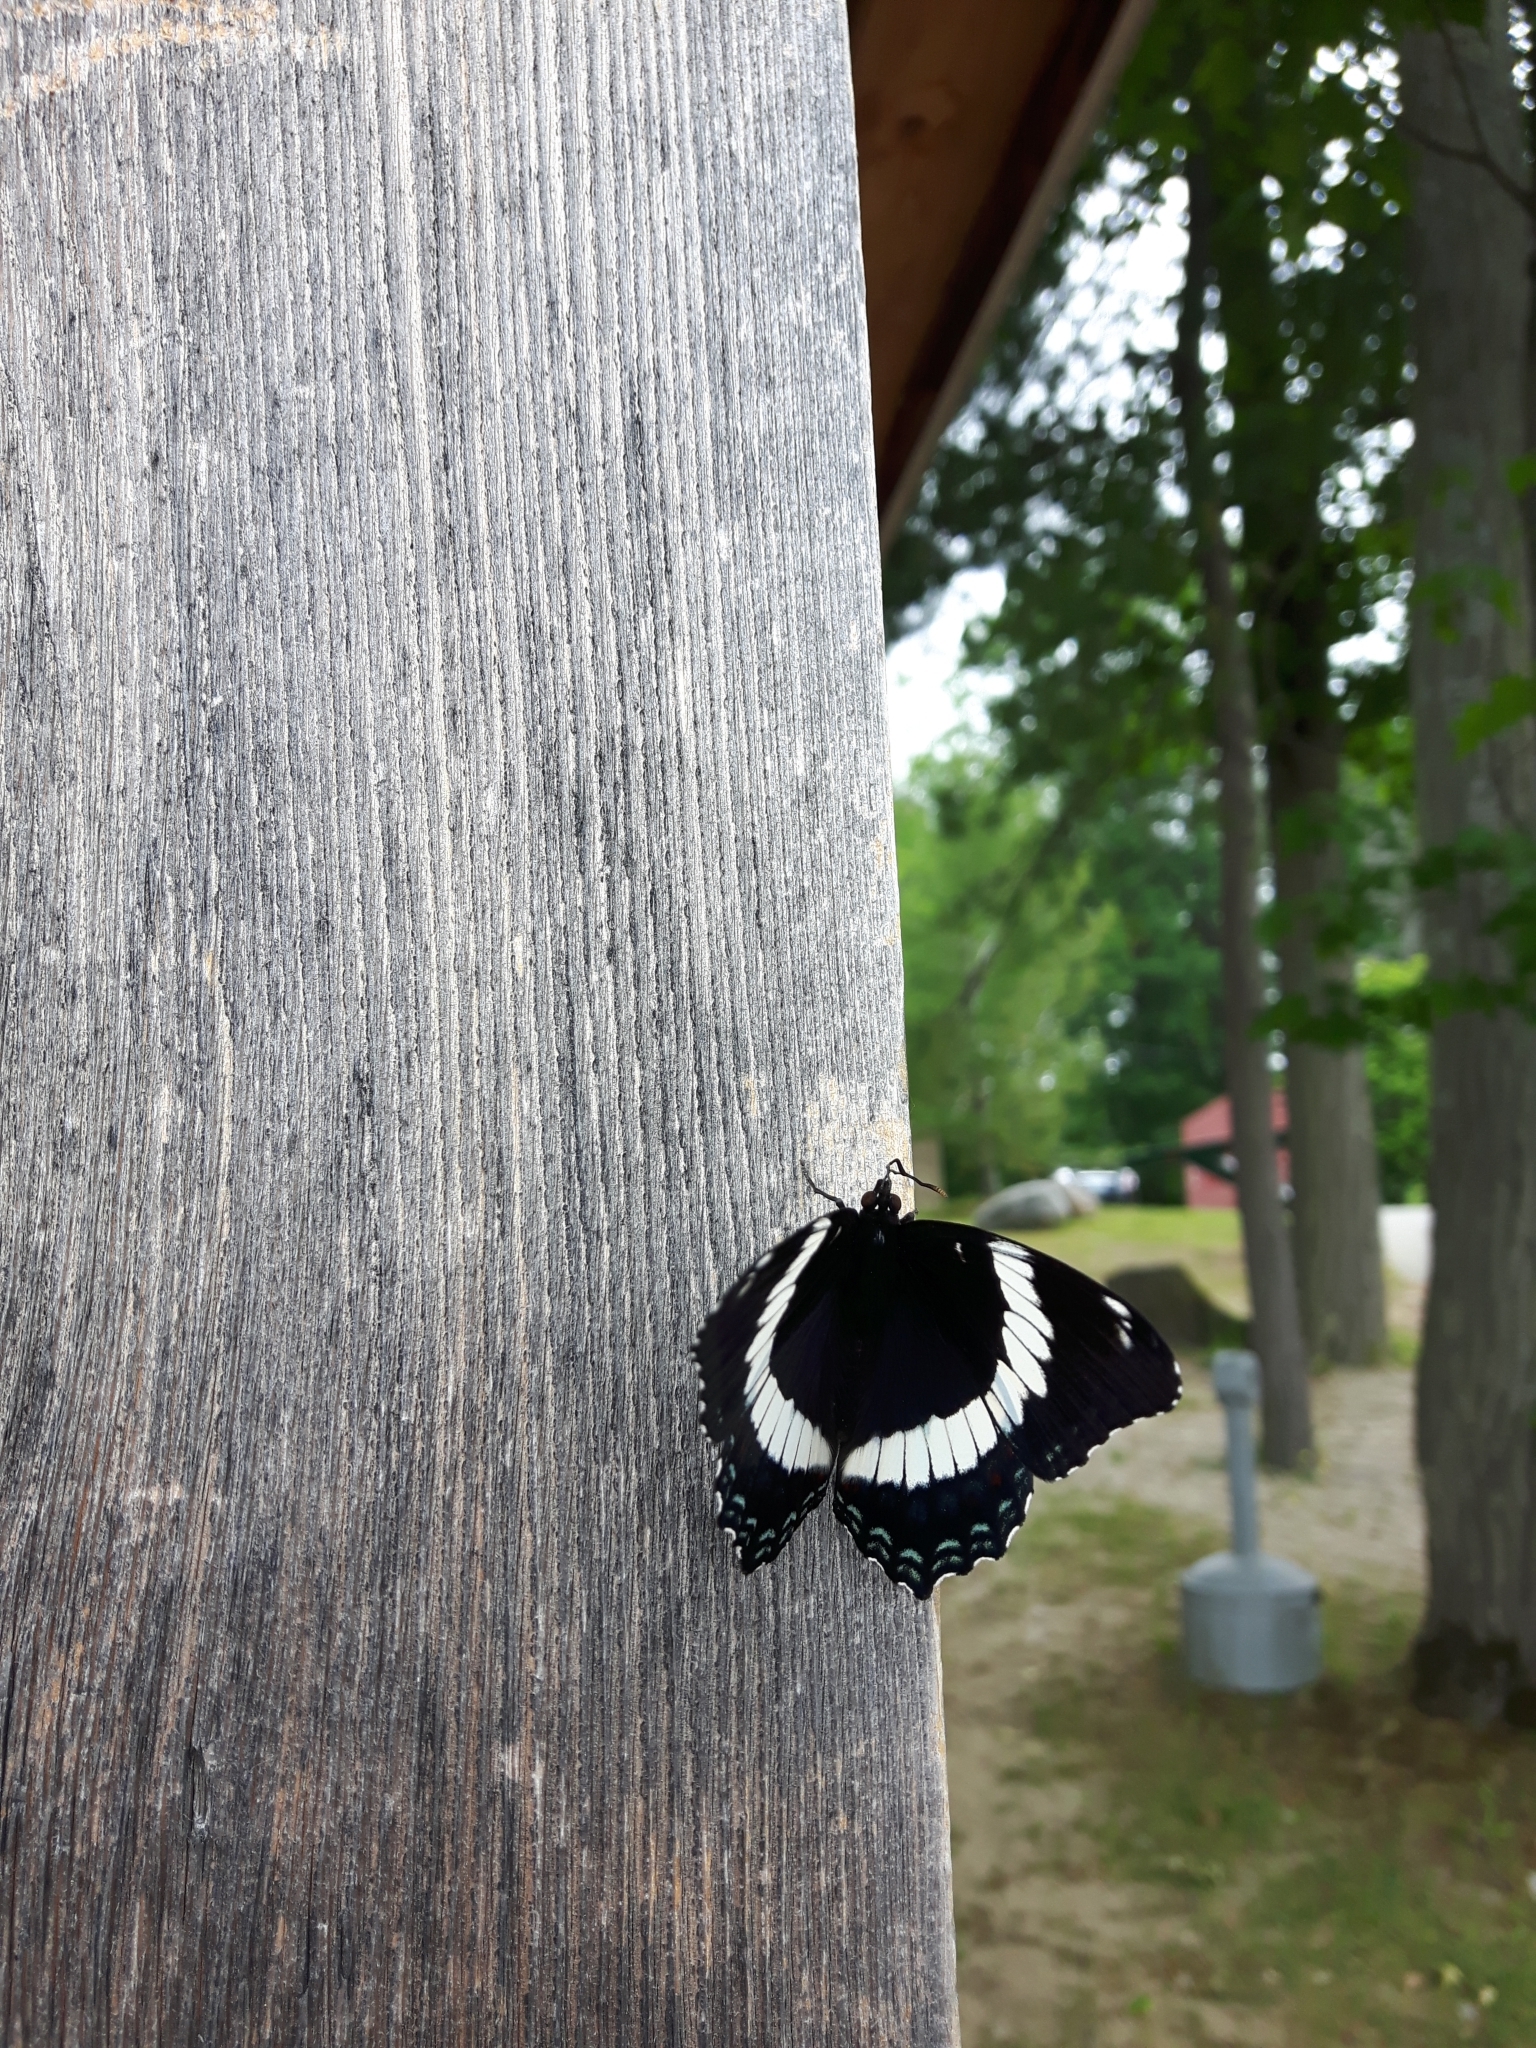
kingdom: Animalia
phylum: Arthropoda
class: Insecta
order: Lepidoptera
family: Nymphalidae
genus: Limenitis
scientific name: Limenitis arthemis
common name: Red-spotted admiral
